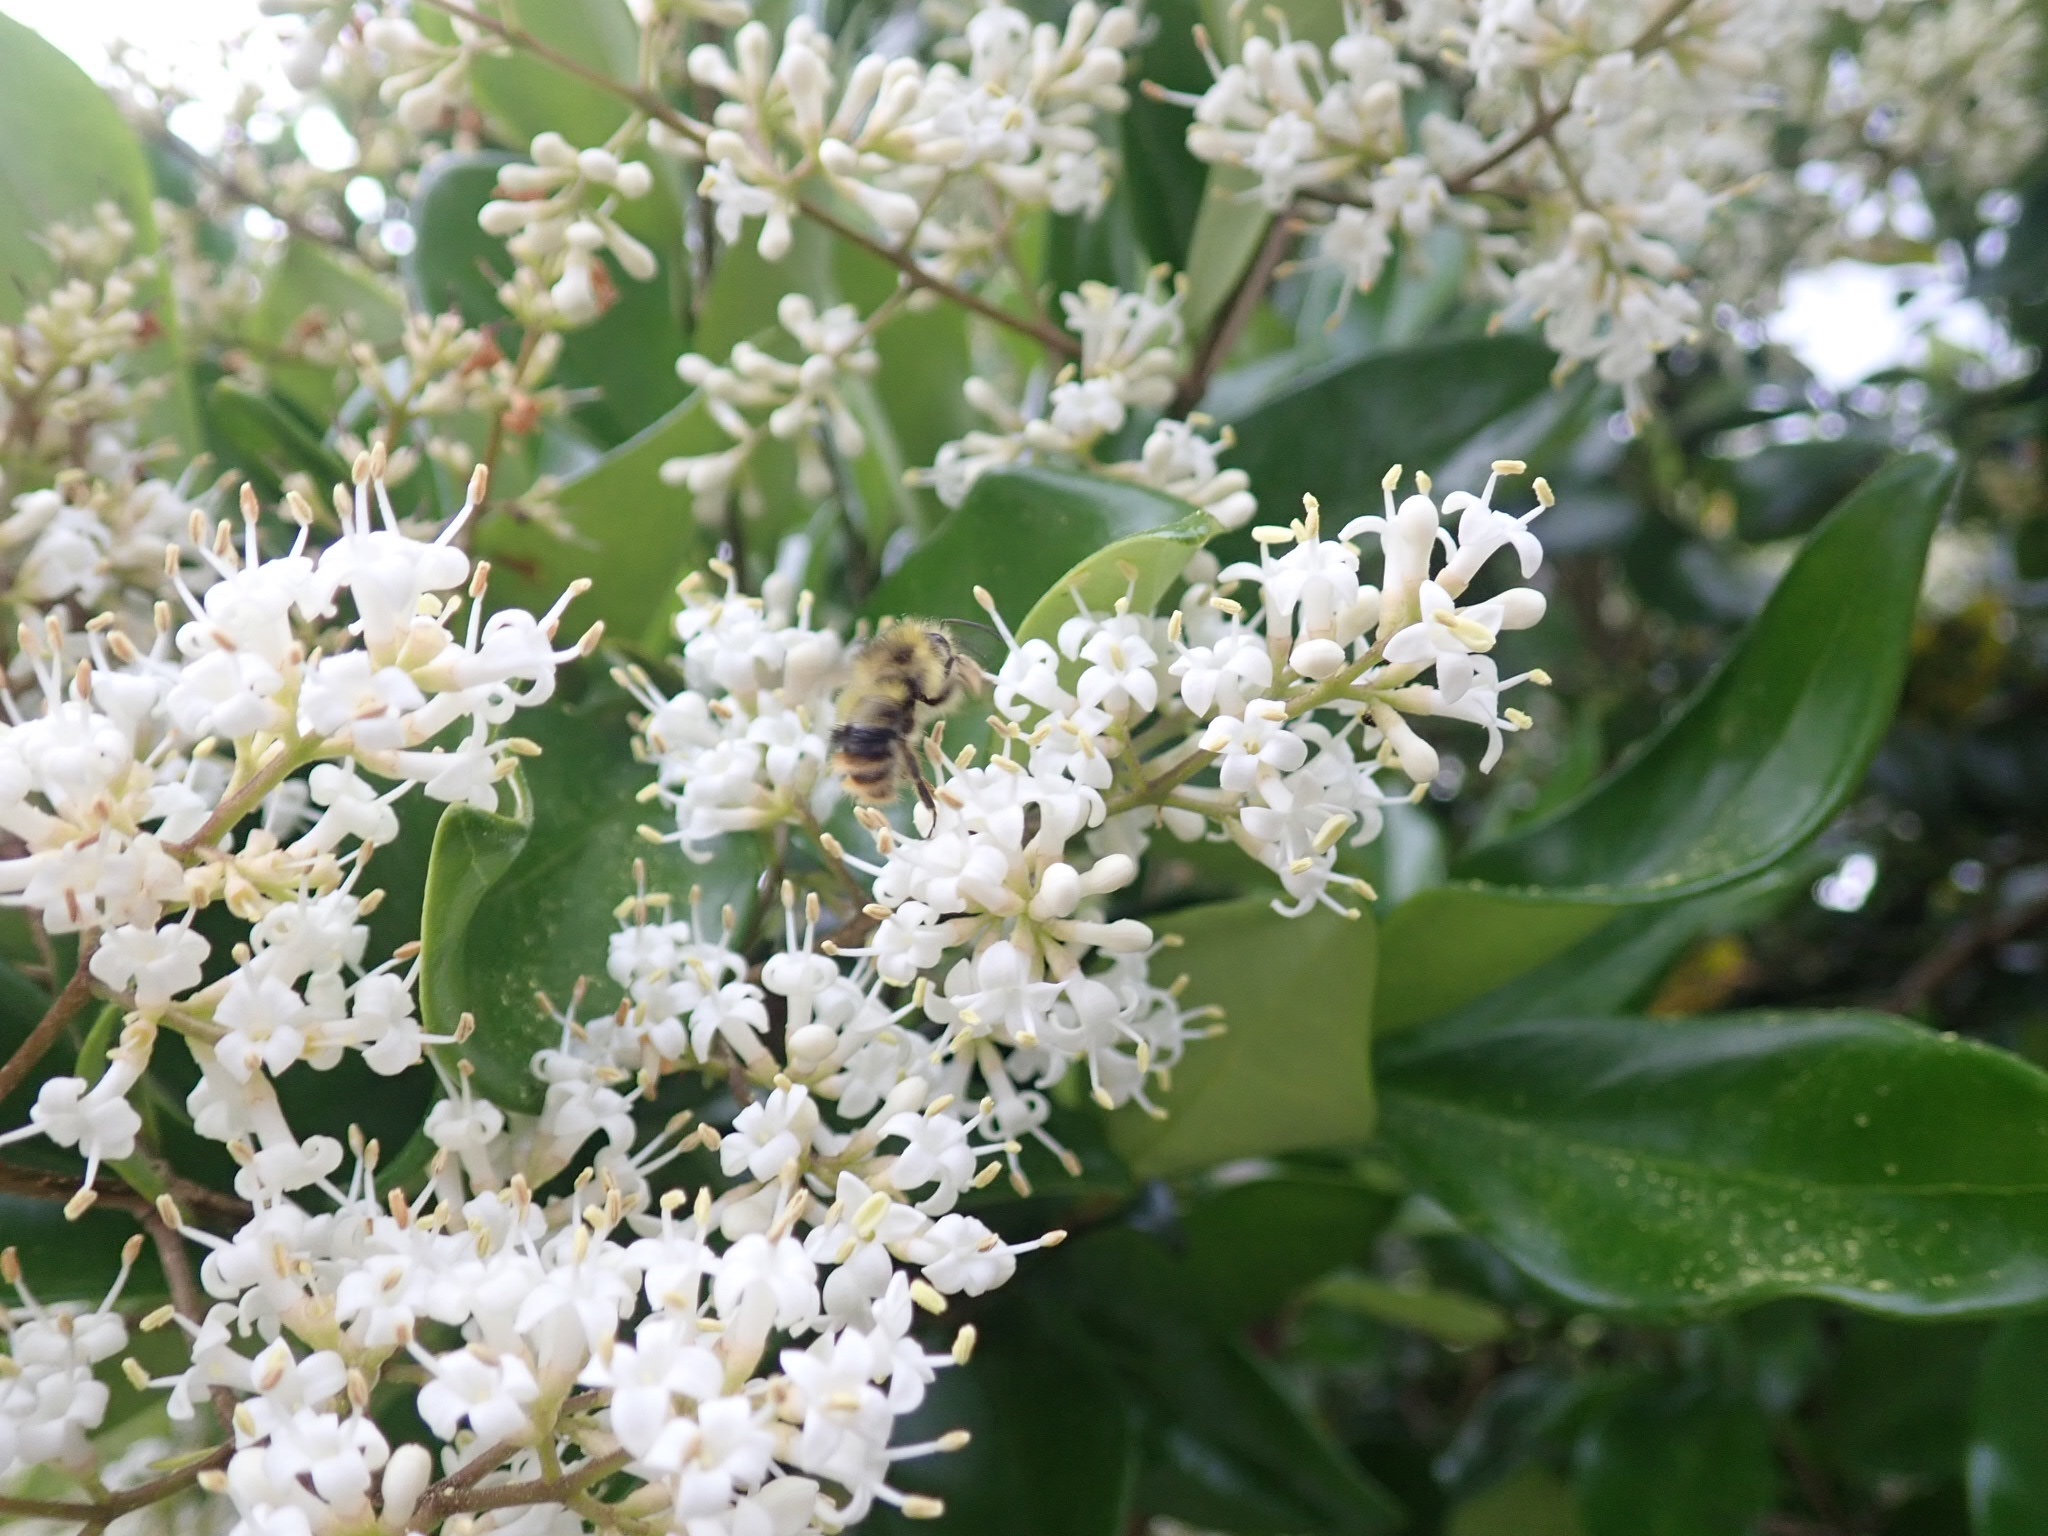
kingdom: Animalia
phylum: Arthropoda
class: Insecta
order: Hymenoptera
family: Apidae
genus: Bombus
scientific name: Bombus mixtus
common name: Fuzzy-horned bumble bee
